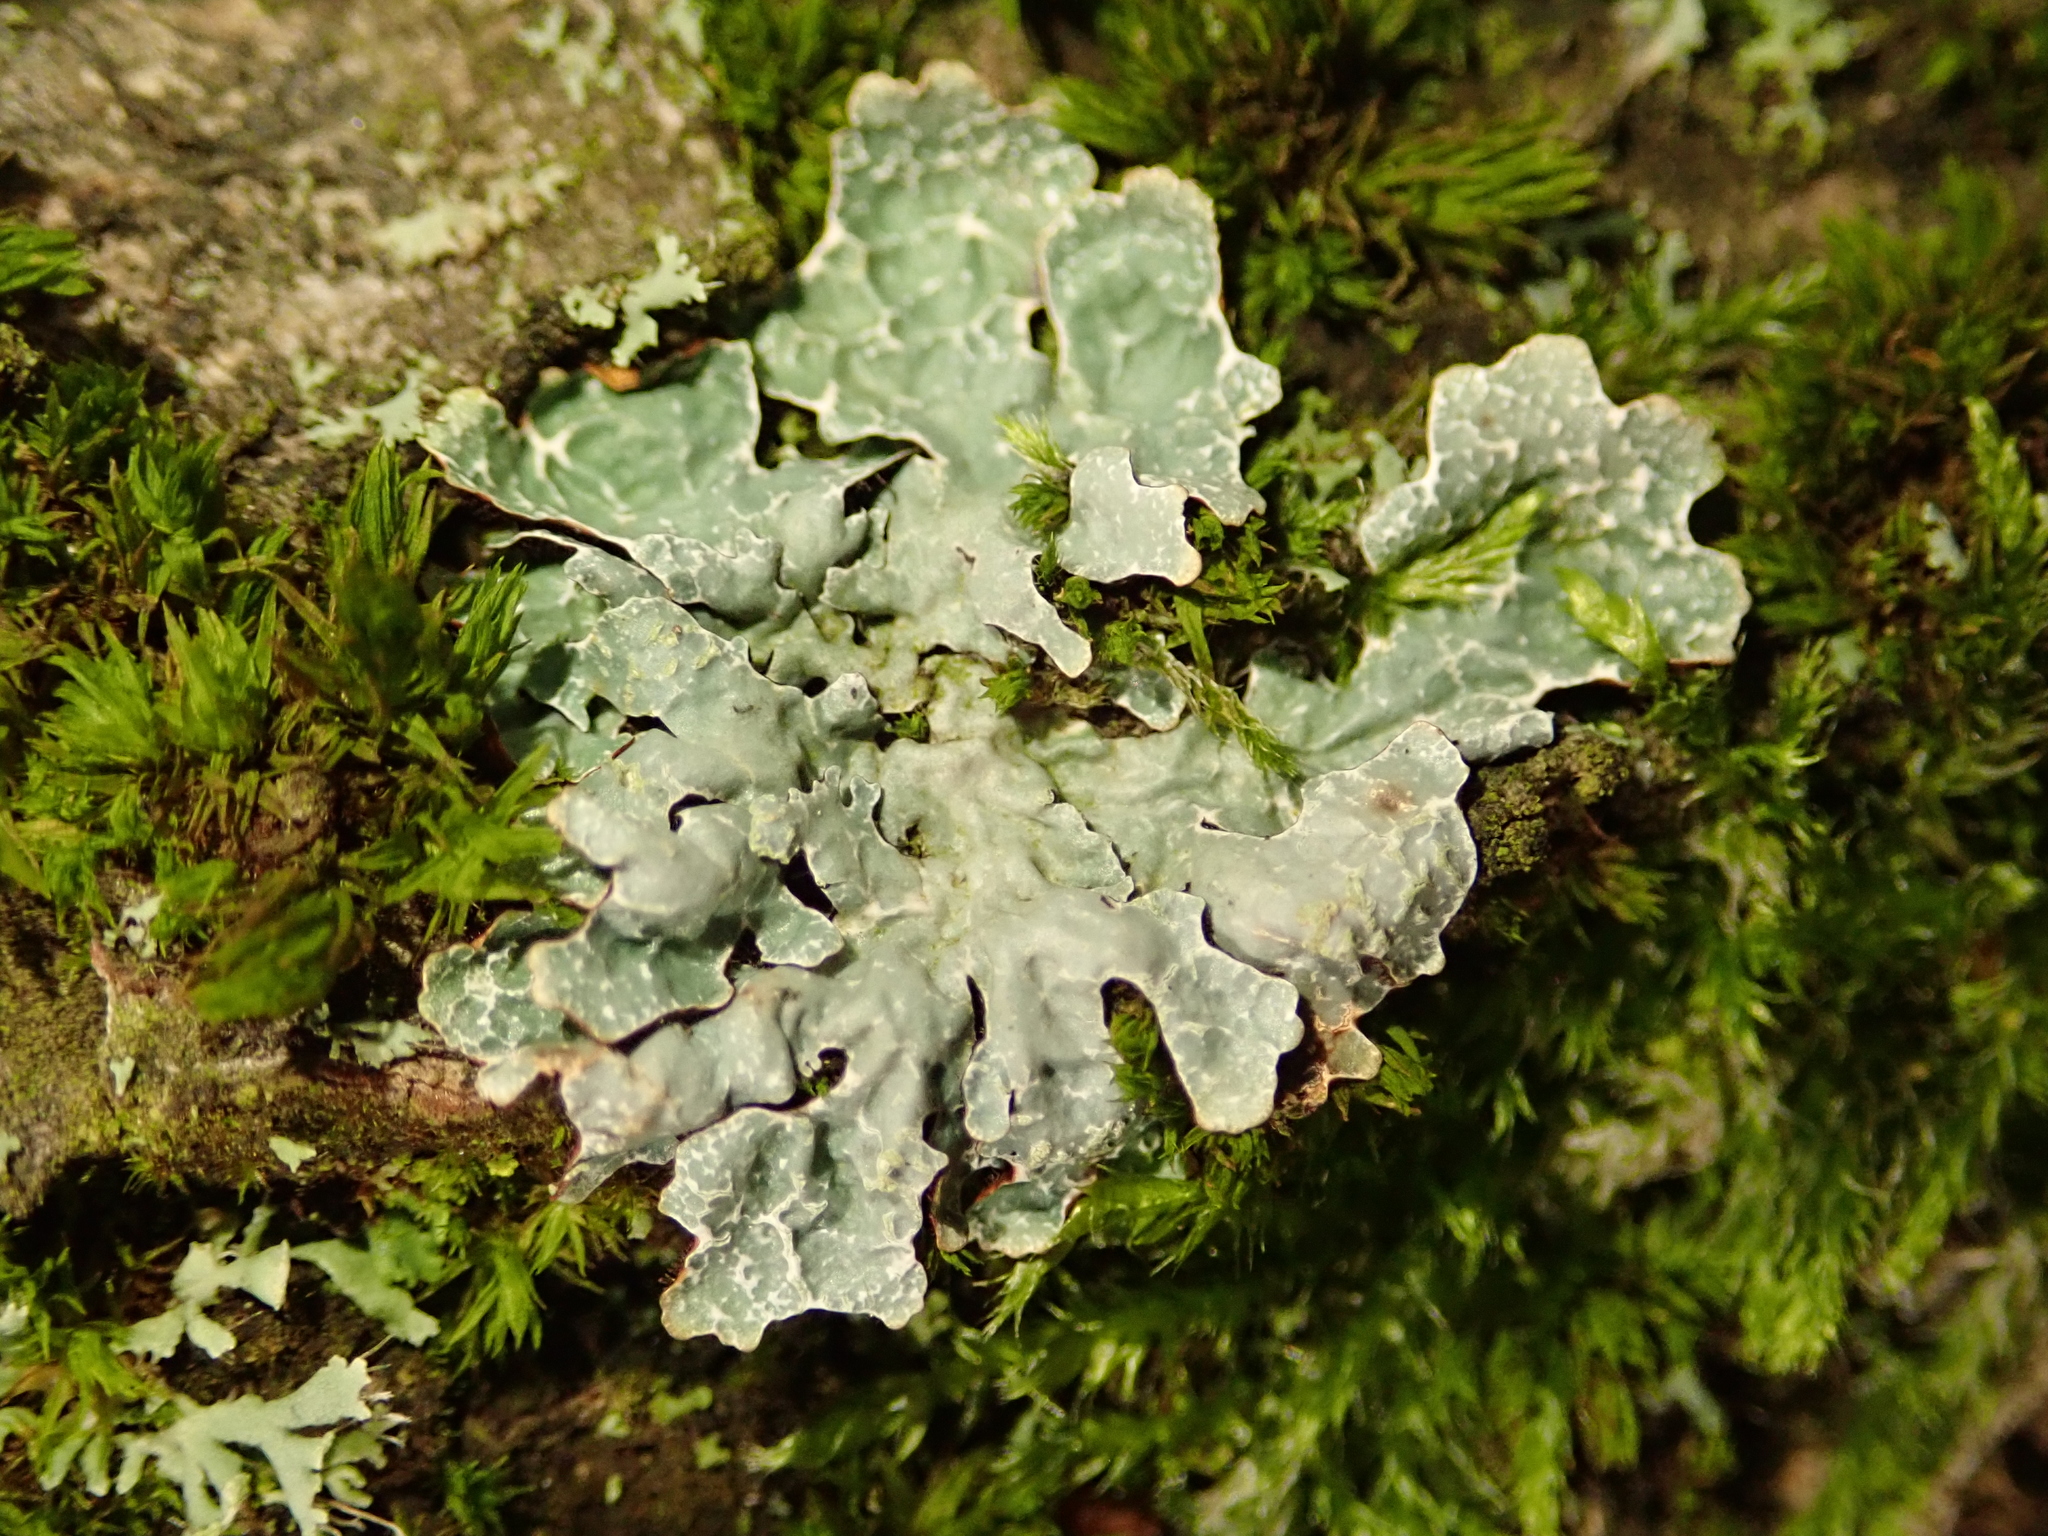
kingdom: Fungi
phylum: Ascomycota
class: Lecanoromycetes
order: Lecanorales
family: Parmeliaceae
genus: Parmelia
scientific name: Parmelia sulcata
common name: Netted shield lichen
